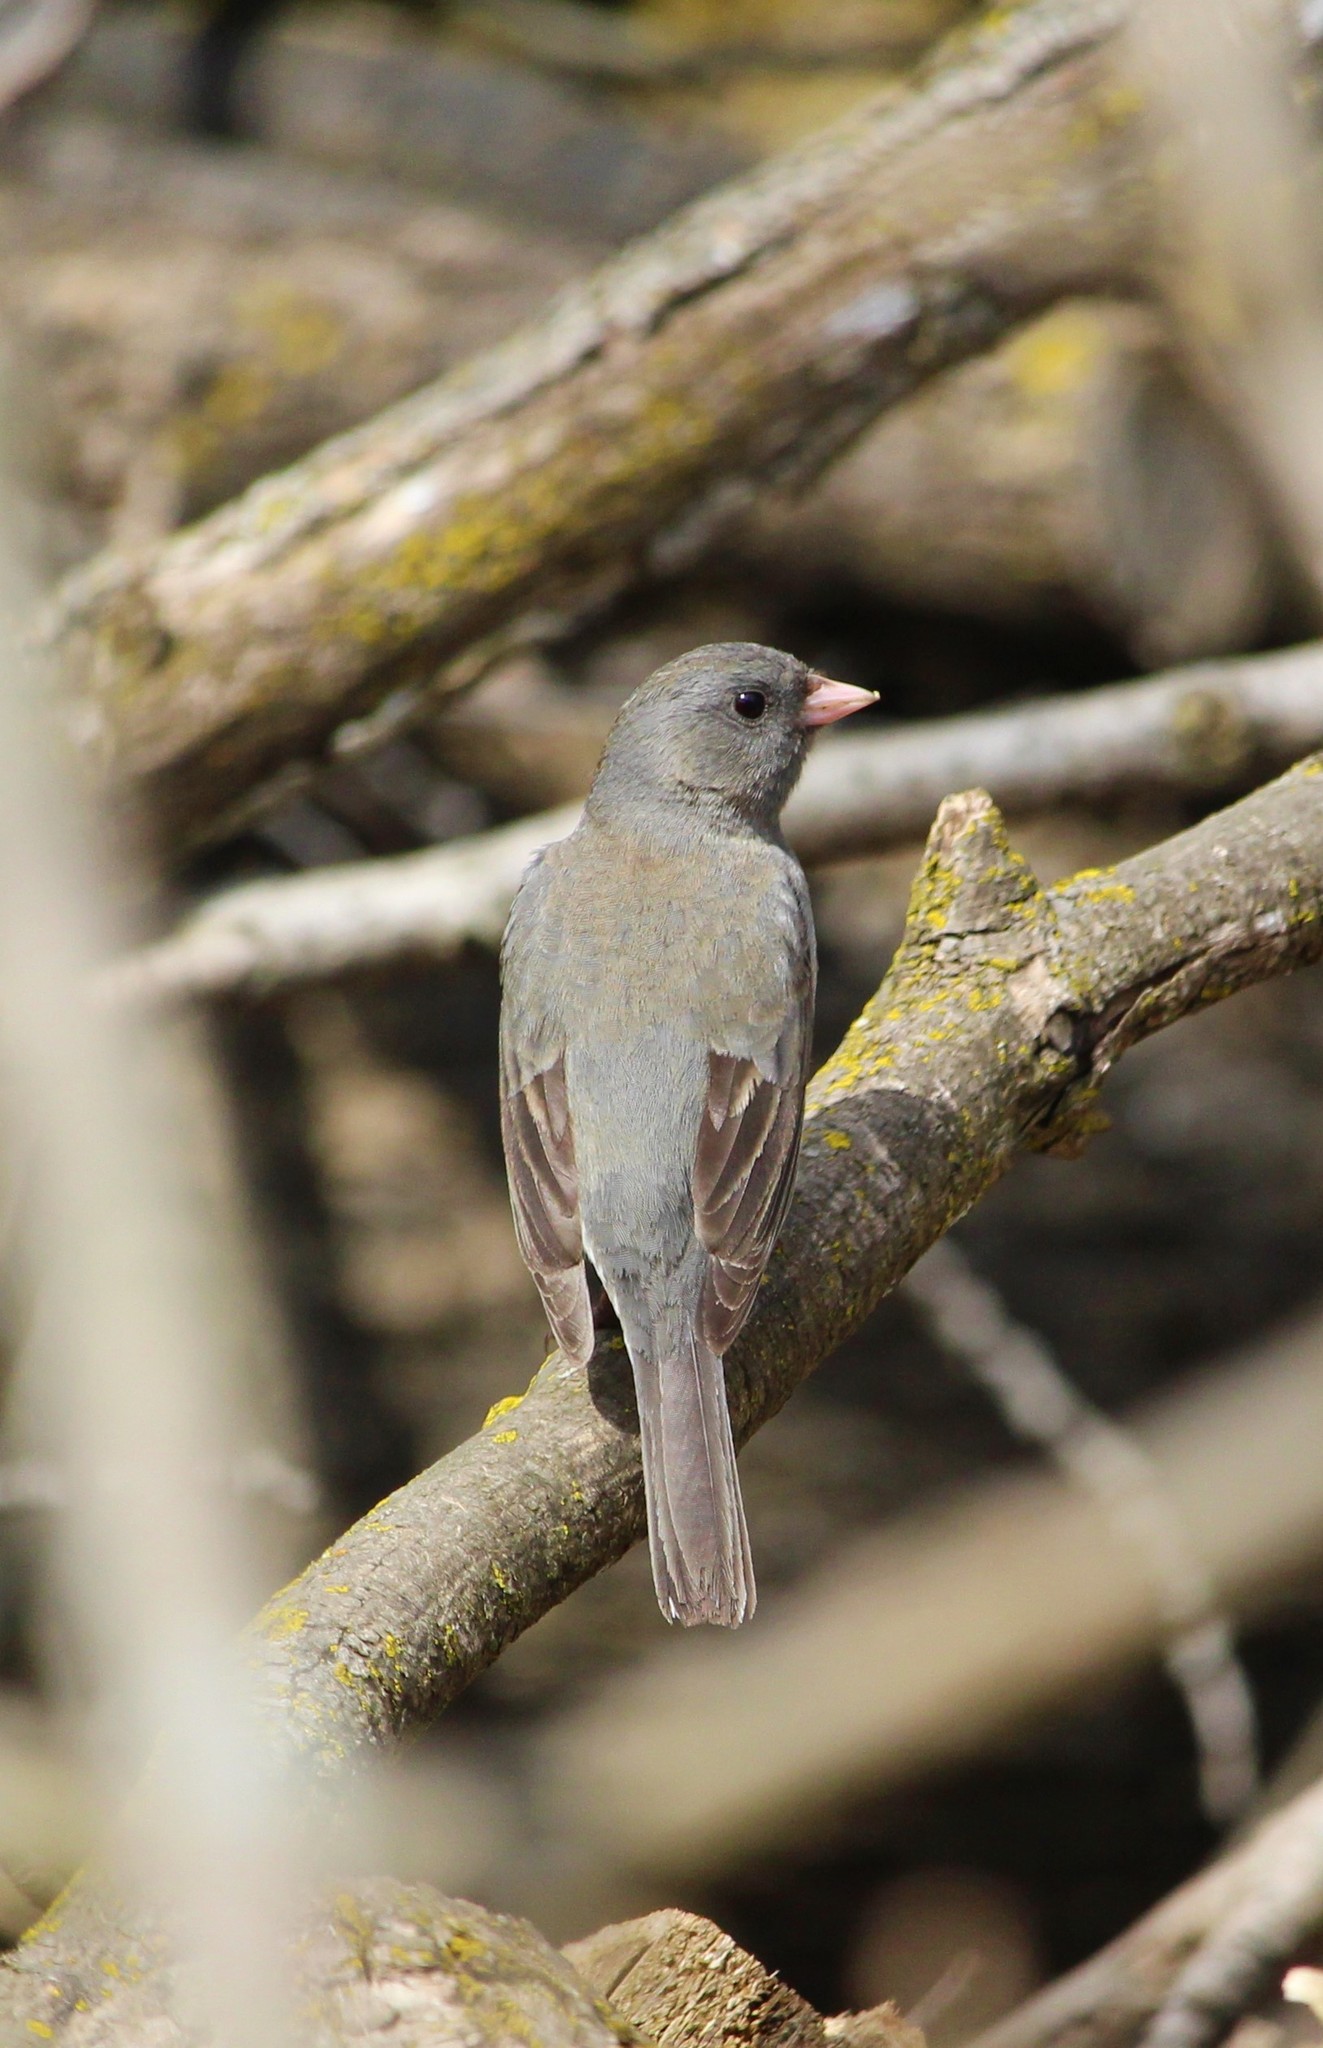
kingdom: Animalia
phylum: Chordata
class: Aves
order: Passeriformes
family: Passerellidae
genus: Junco
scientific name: Junco hyemalis
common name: Dark-eyed junco
